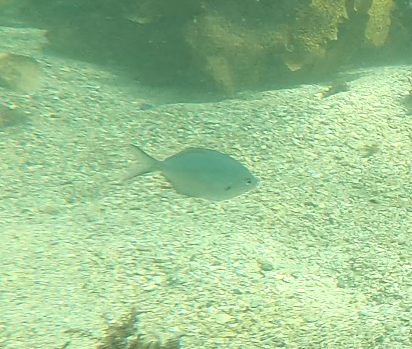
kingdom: Animalia
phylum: Chordata
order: Perciformes
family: Kyphosidae
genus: Scorpis
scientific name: Scorpis lineolata
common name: Sweep
